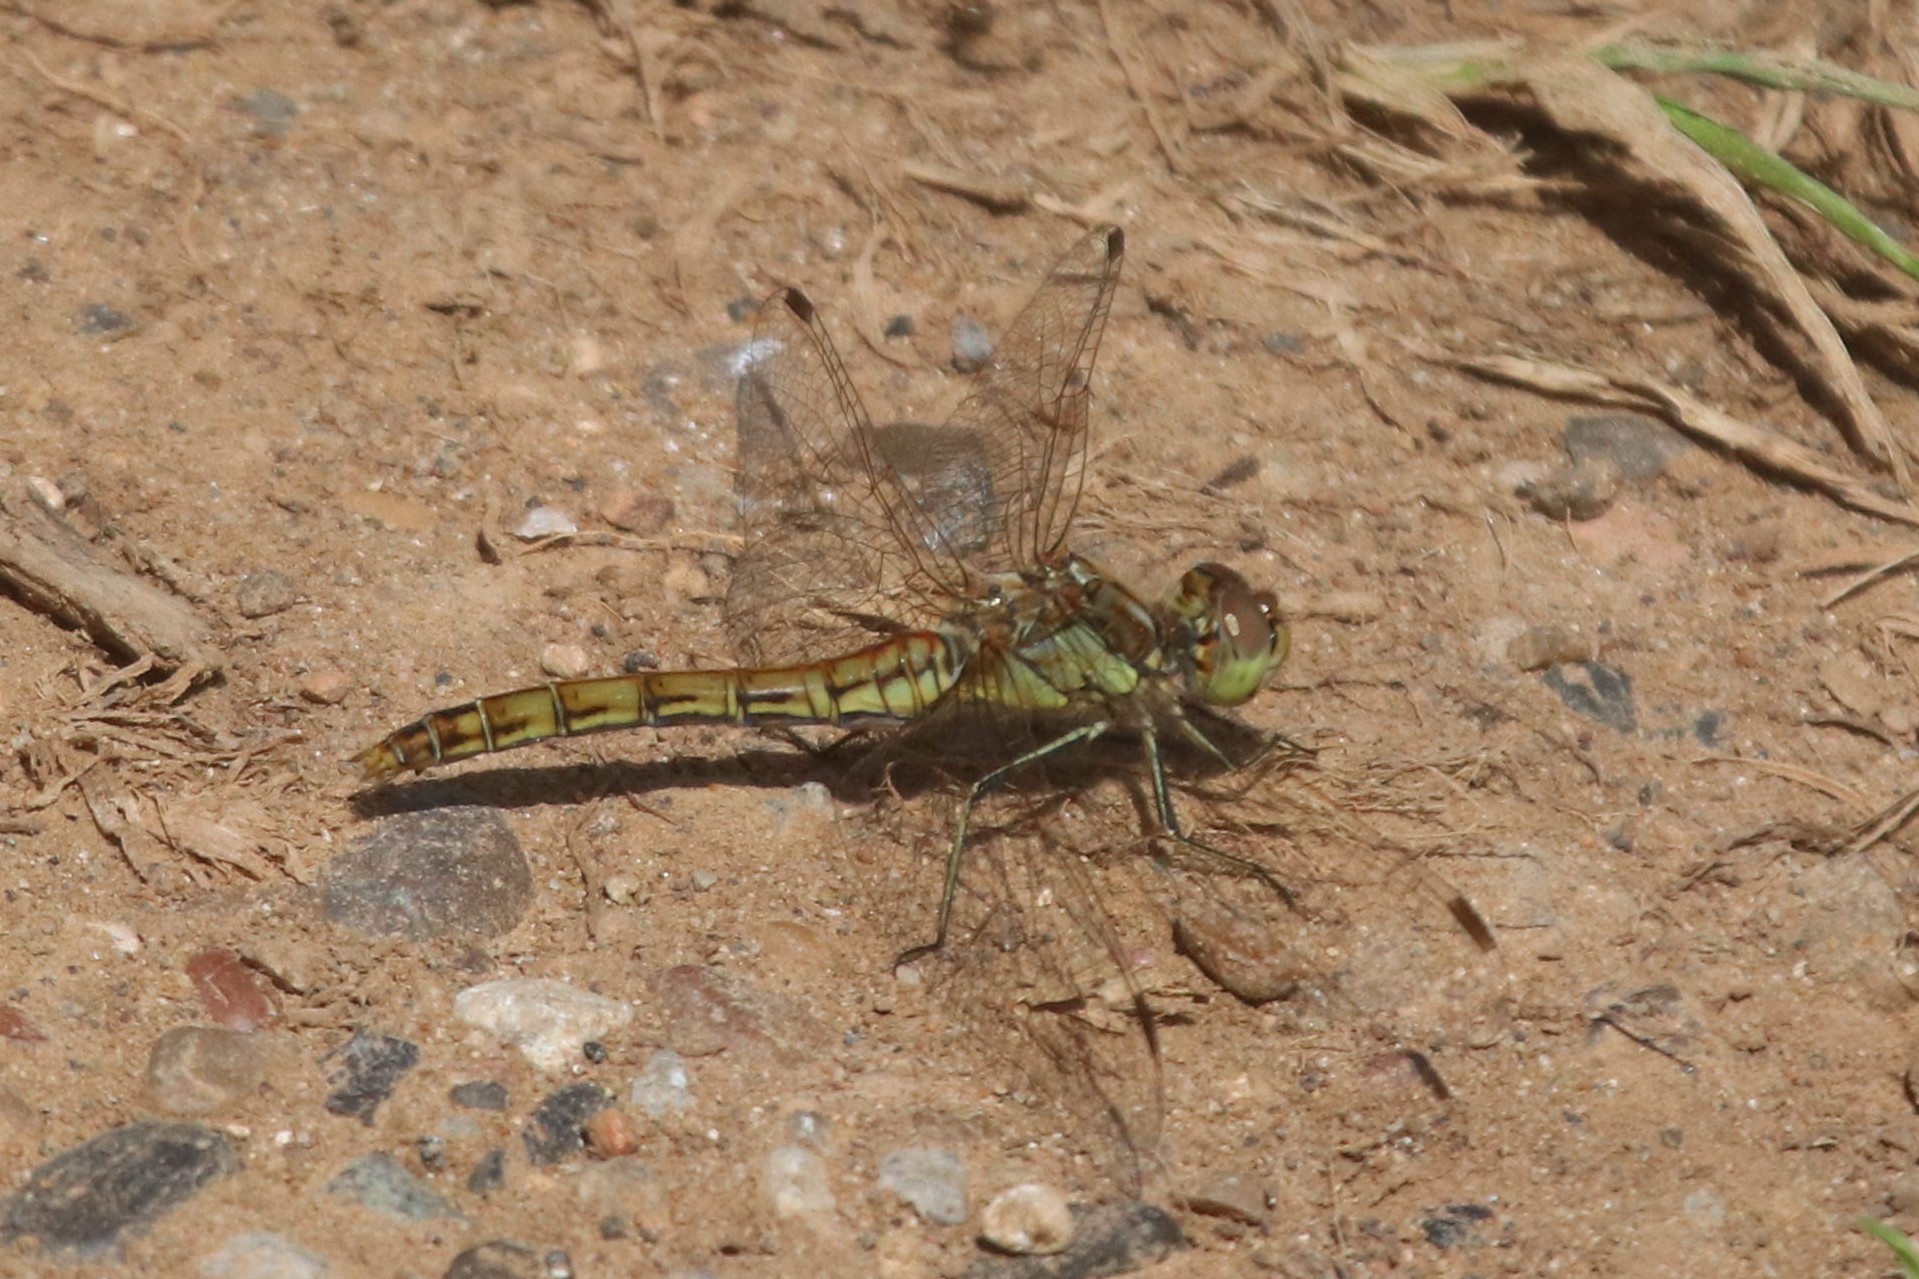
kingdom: Animalia
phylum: Arthropoda
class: Insecta
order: Odonata
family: Libellulidae
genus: Sympetrum
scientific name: Sympetrum vulgatum
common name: Vagrant darter
